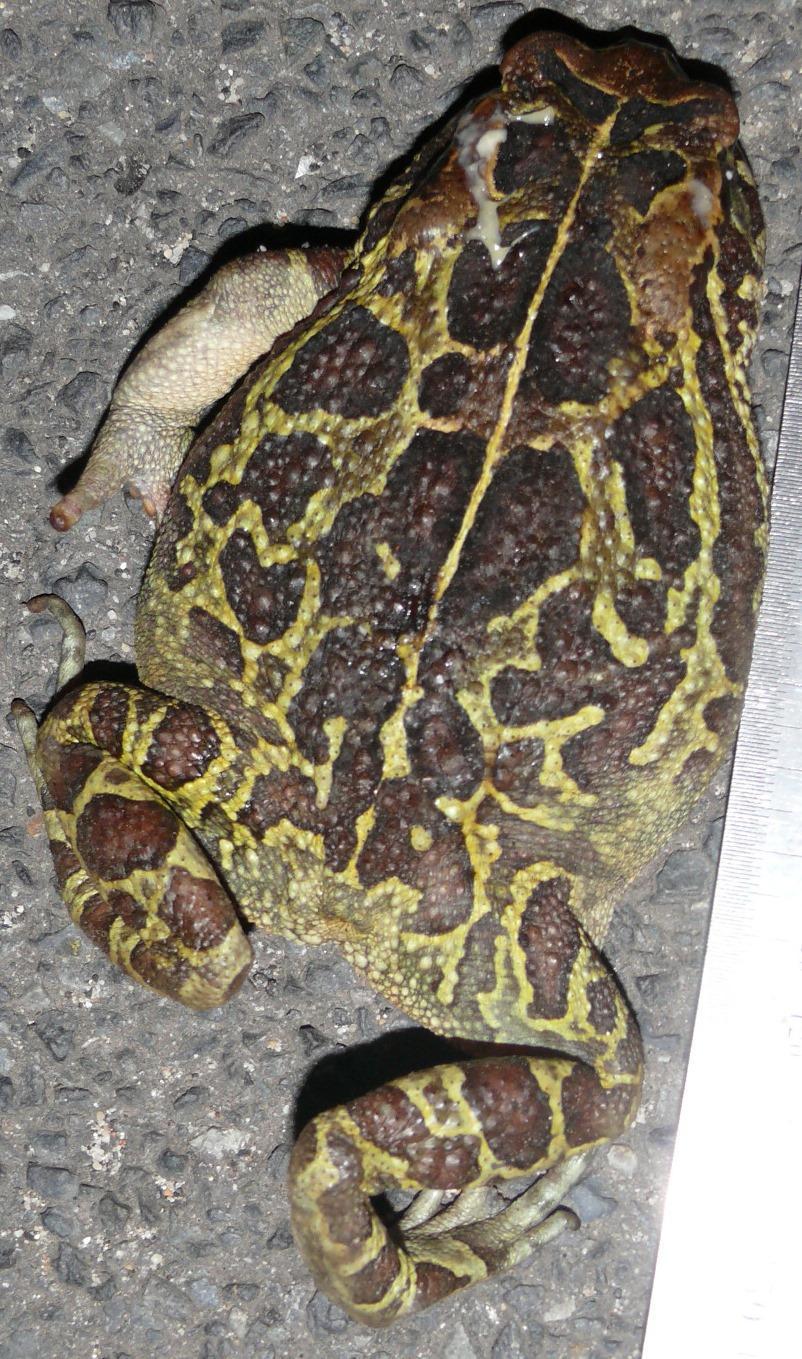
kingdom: Animalia
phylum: Chordata
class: Amphibia
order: Anura
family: Bufonidae
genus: Sclerophrys
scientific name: Sclerophrys pantherina
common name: Panther toad
